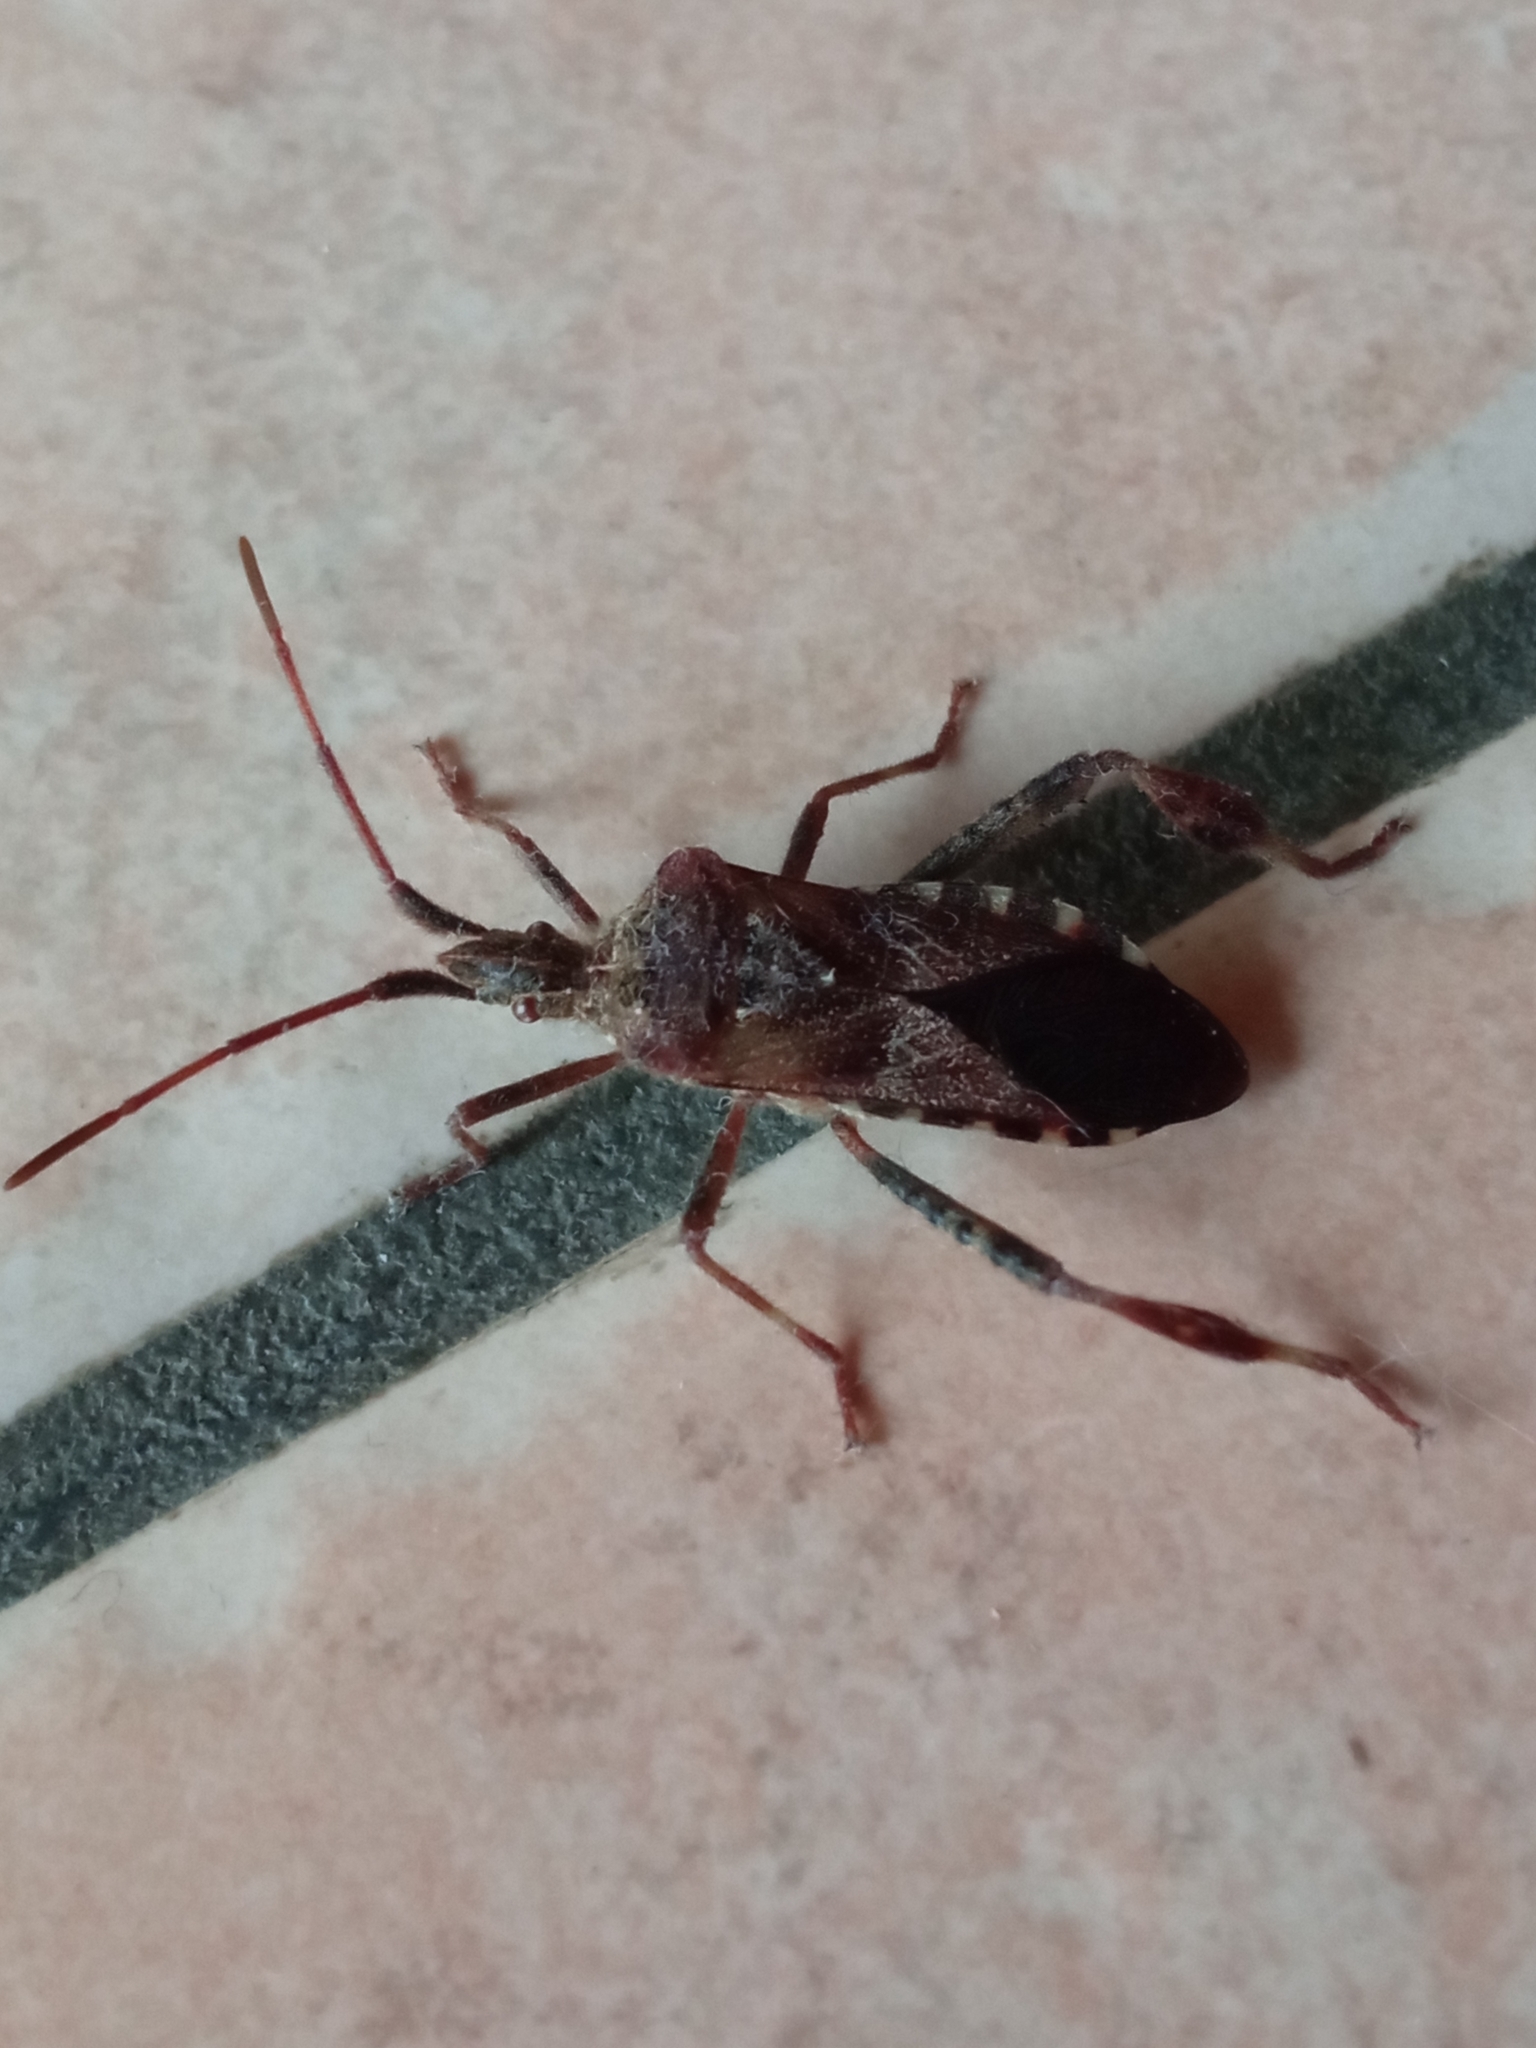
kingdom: Animalia
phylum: Arthropoda
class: Insecta
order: Hemiptera
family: Coreidae
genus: Leptoglossus
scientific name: Leptoglossus occidentalis
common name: Western conifer-seed bug
